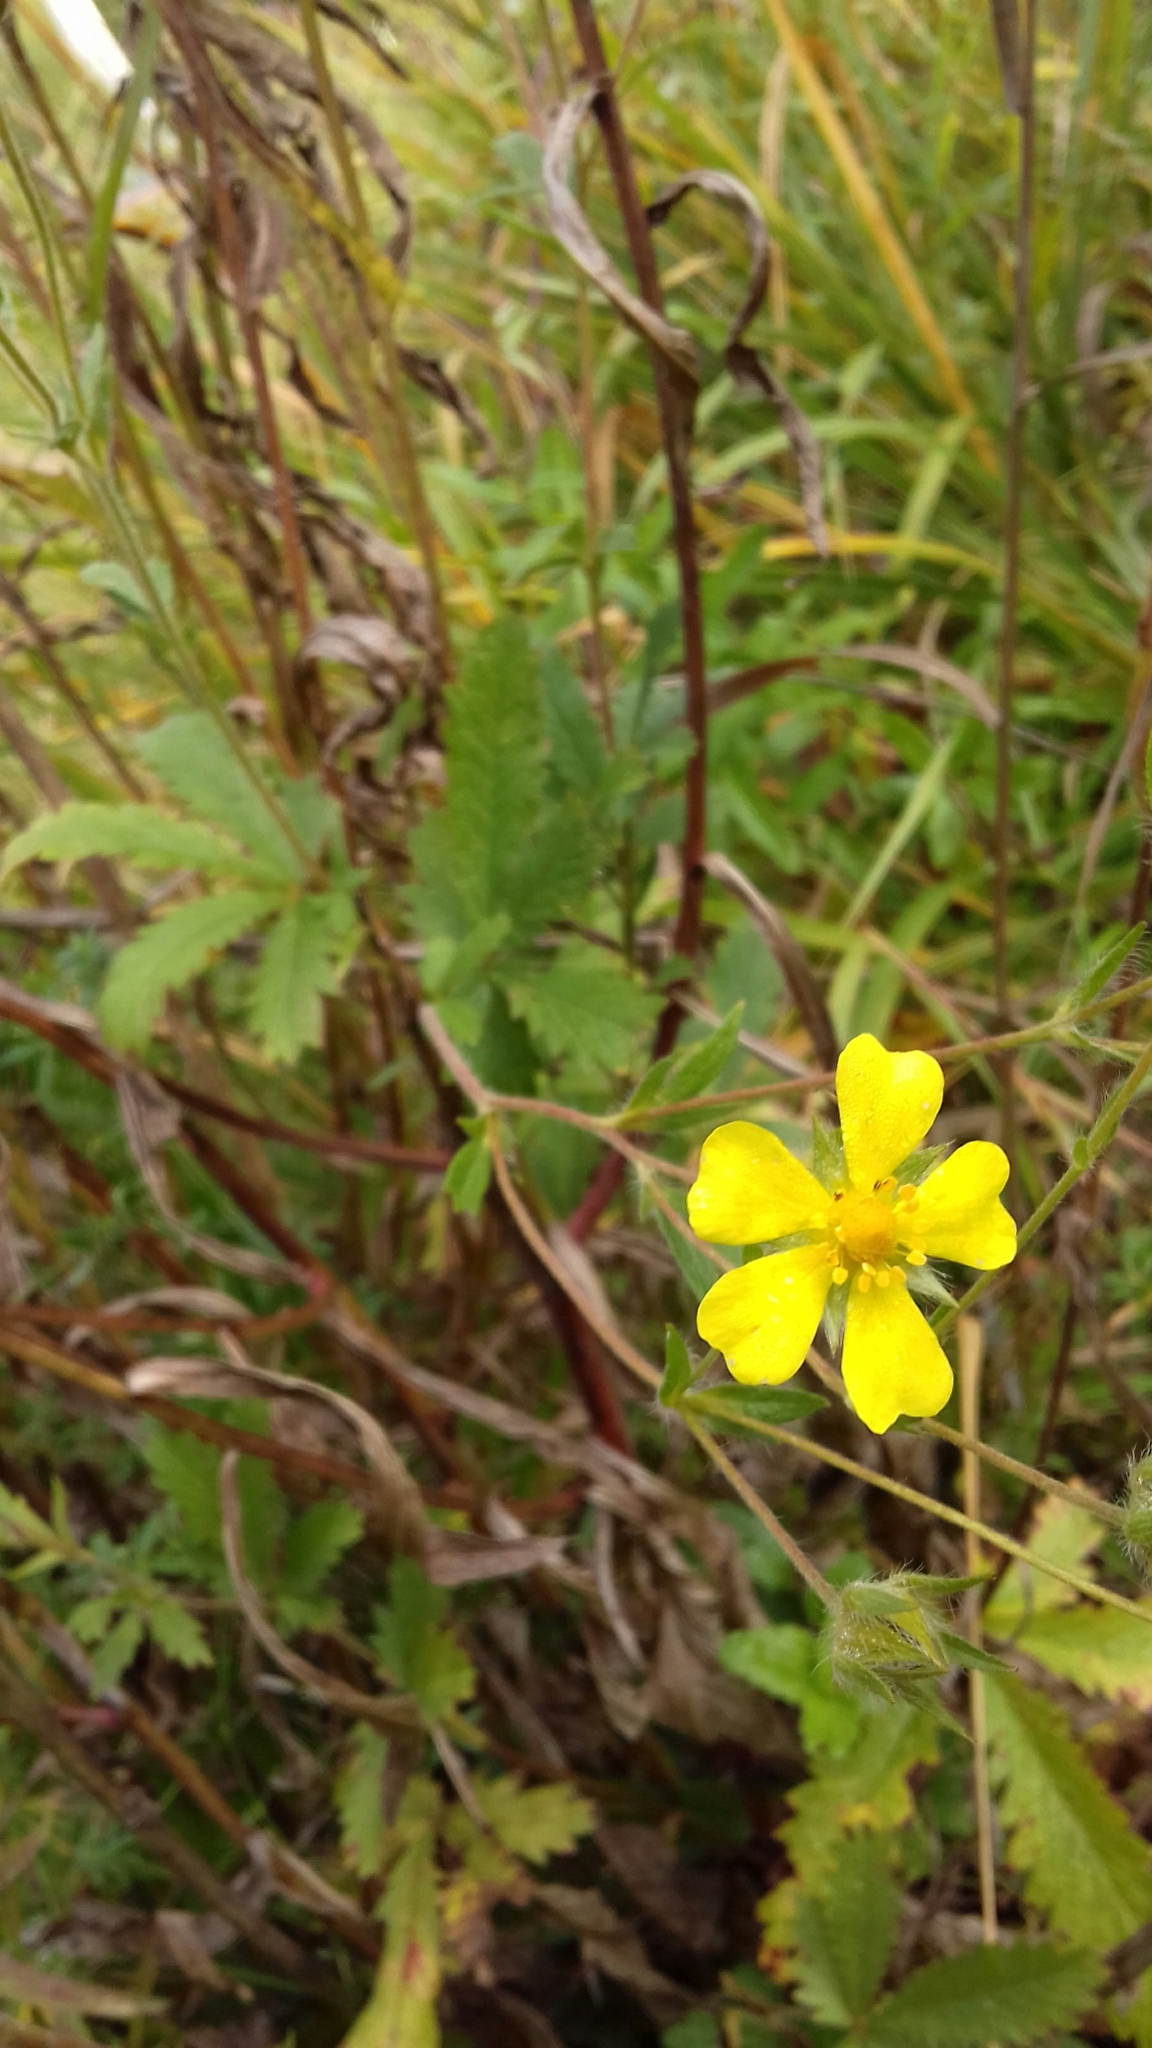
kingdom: Plantae
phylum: Tracheophyta
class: Magnoliopsida
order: Rosales
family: Rosaceae
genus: Potentilla
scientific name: Potentilla recta
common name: Sulphur cinquefoil
